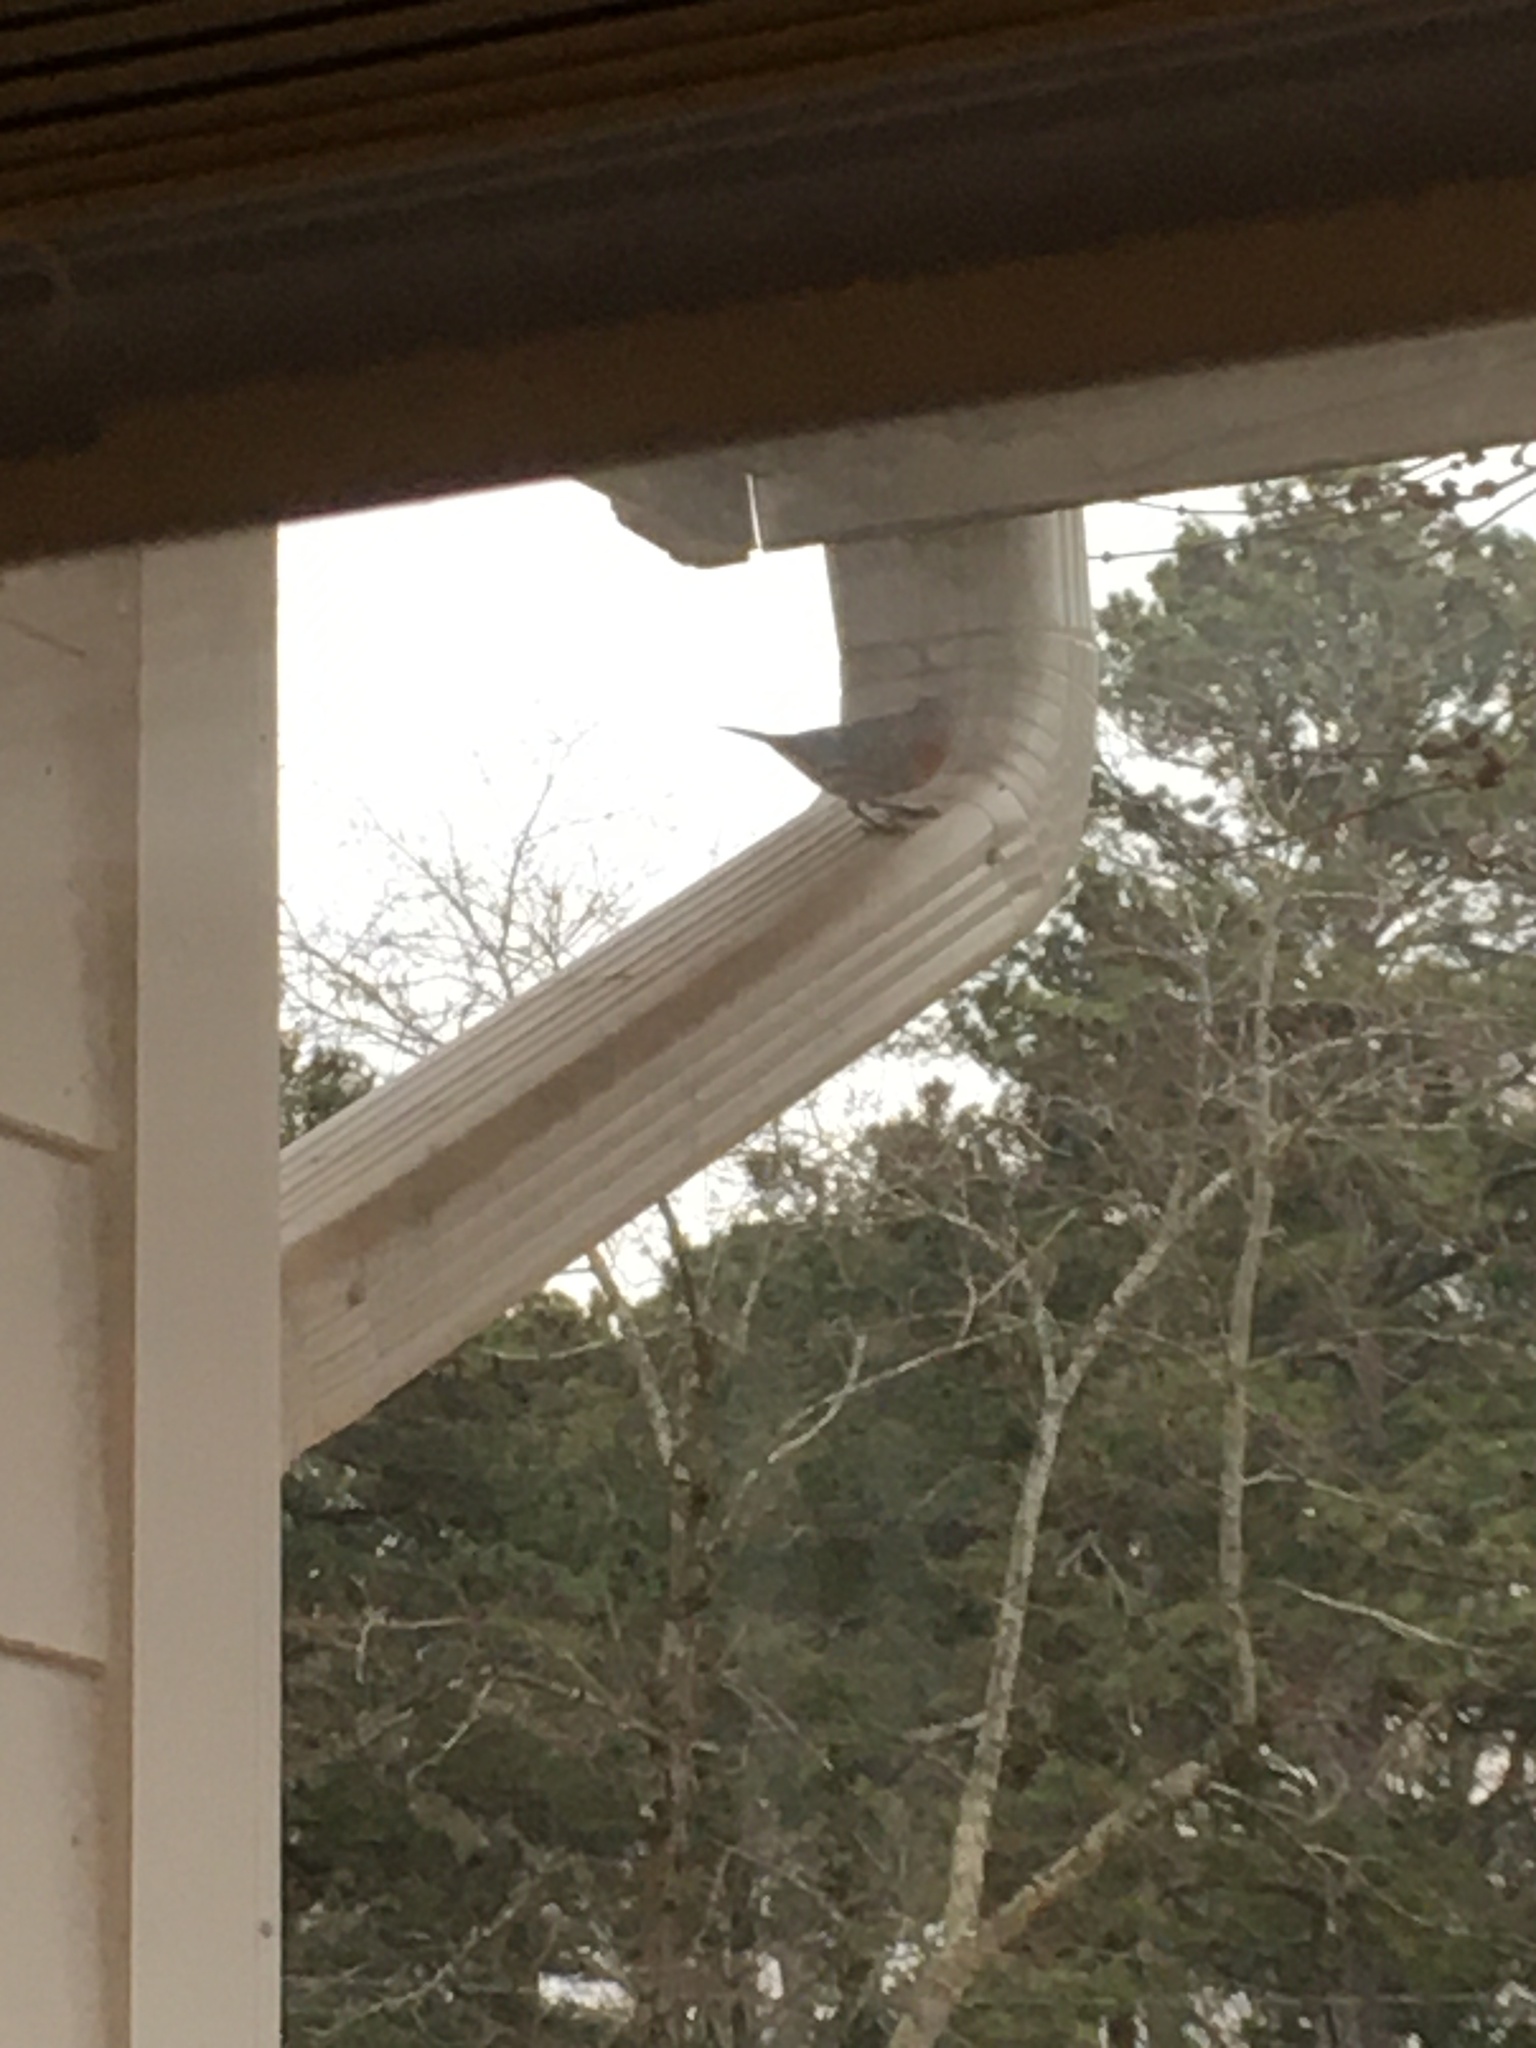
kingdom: Animalia
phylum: Chordata
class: Aves
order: Passeriformes
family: Fringillidae
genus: Haemorhous
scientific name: Haemorhous mexicanus
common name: House finch
